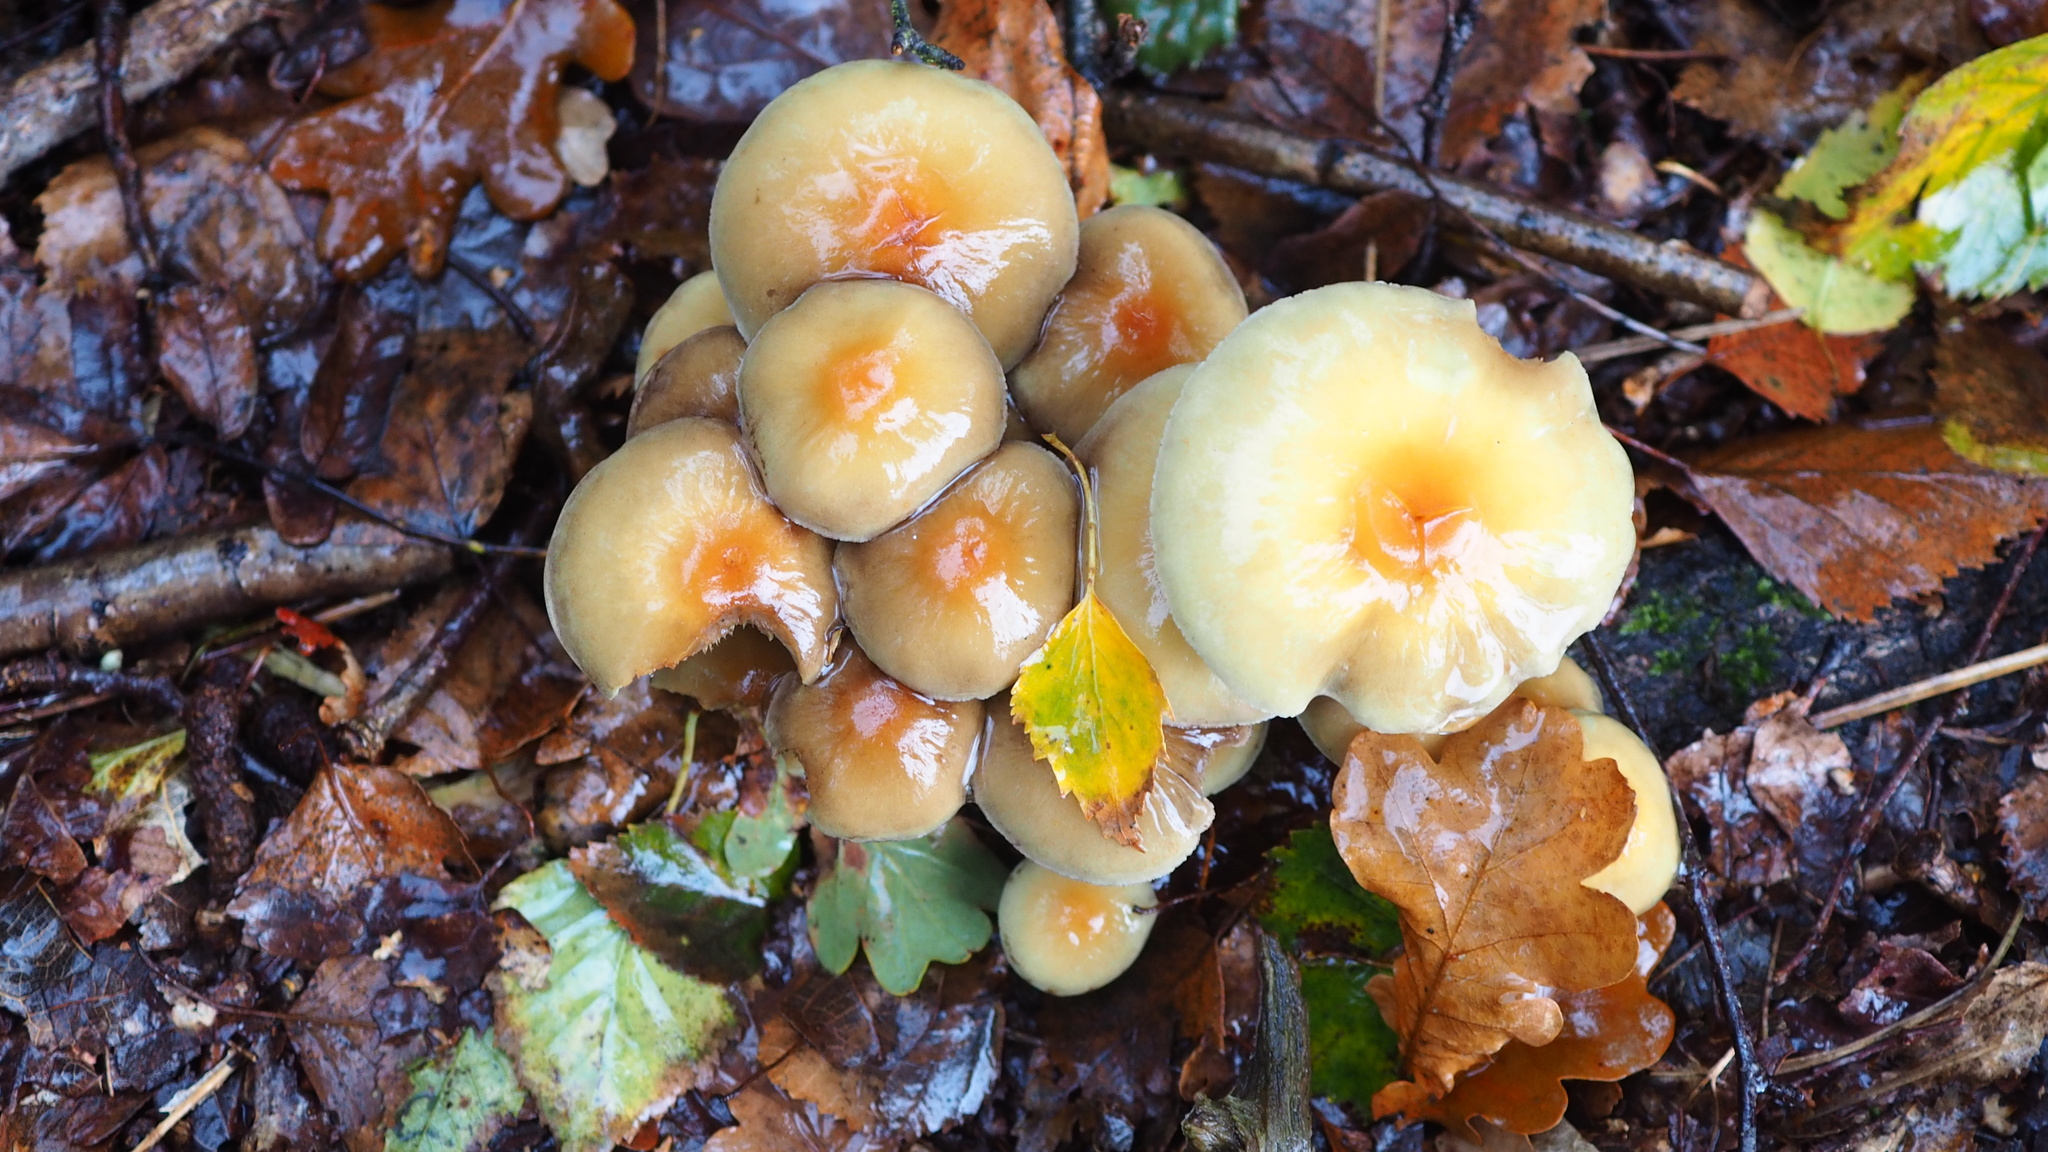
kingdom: Fungi
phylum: Basidiomycota
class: Agaricomycetes
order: Agaricales
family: Strophariaceae
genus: Hypholoma
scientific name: Hypholoma fasciculare
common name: Sulphur tuft
